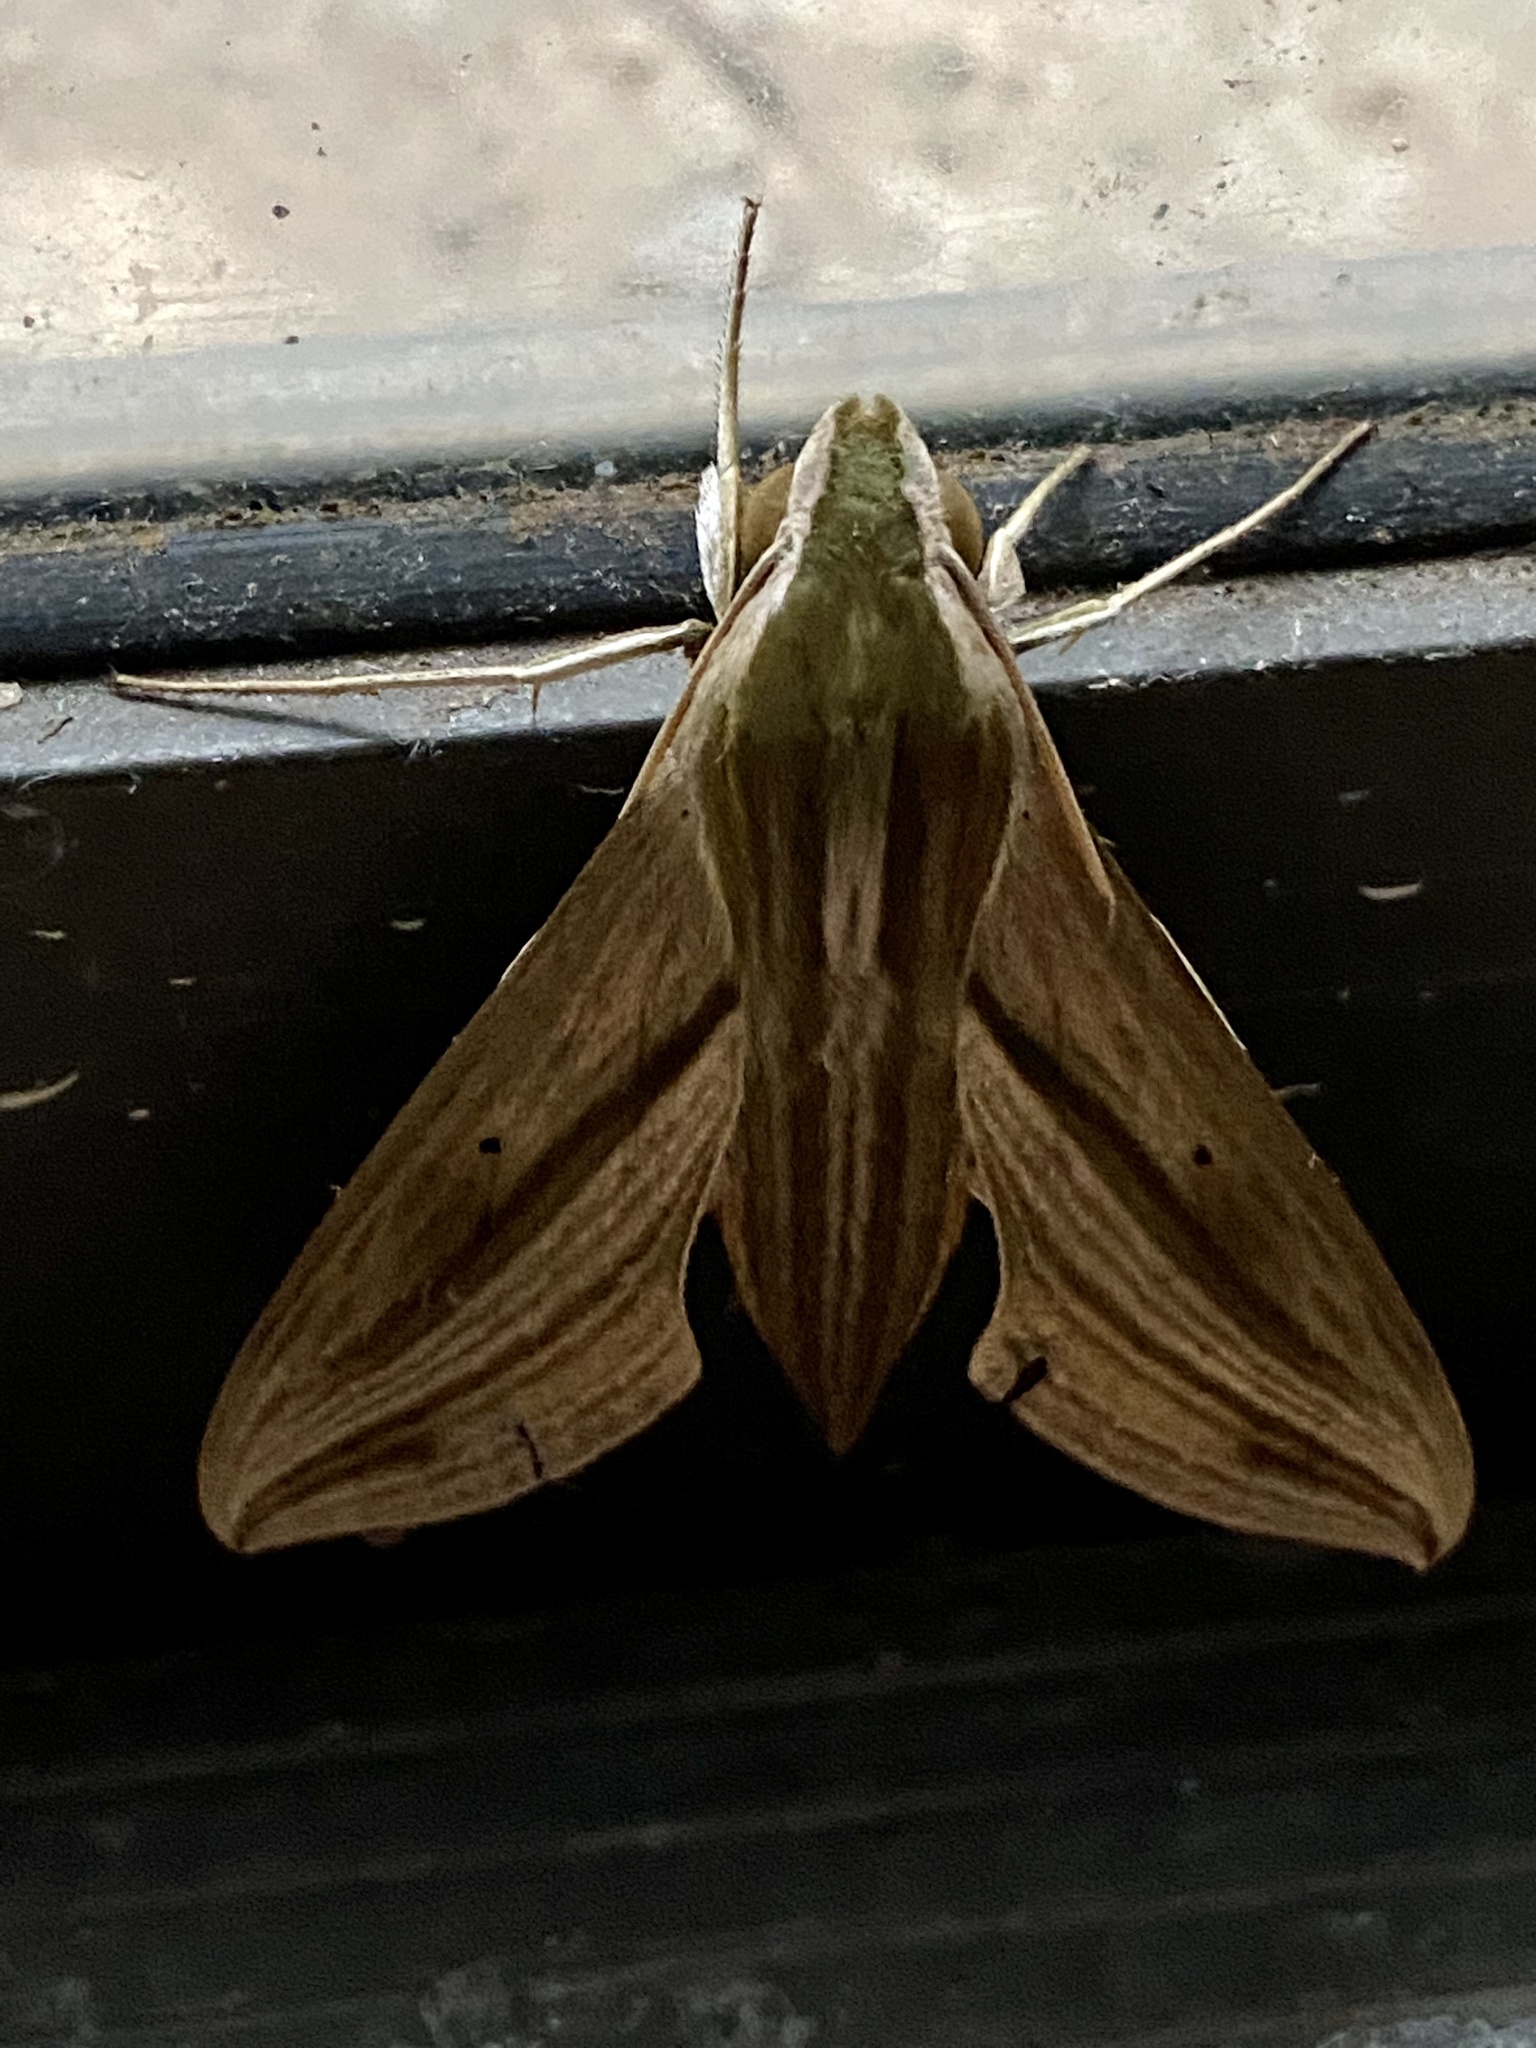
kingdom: Animalia
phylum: Arthropoda
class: Insecta
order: Lepidoptera
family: Sphingidae
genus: Hippotion
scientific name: Hippotion eson
